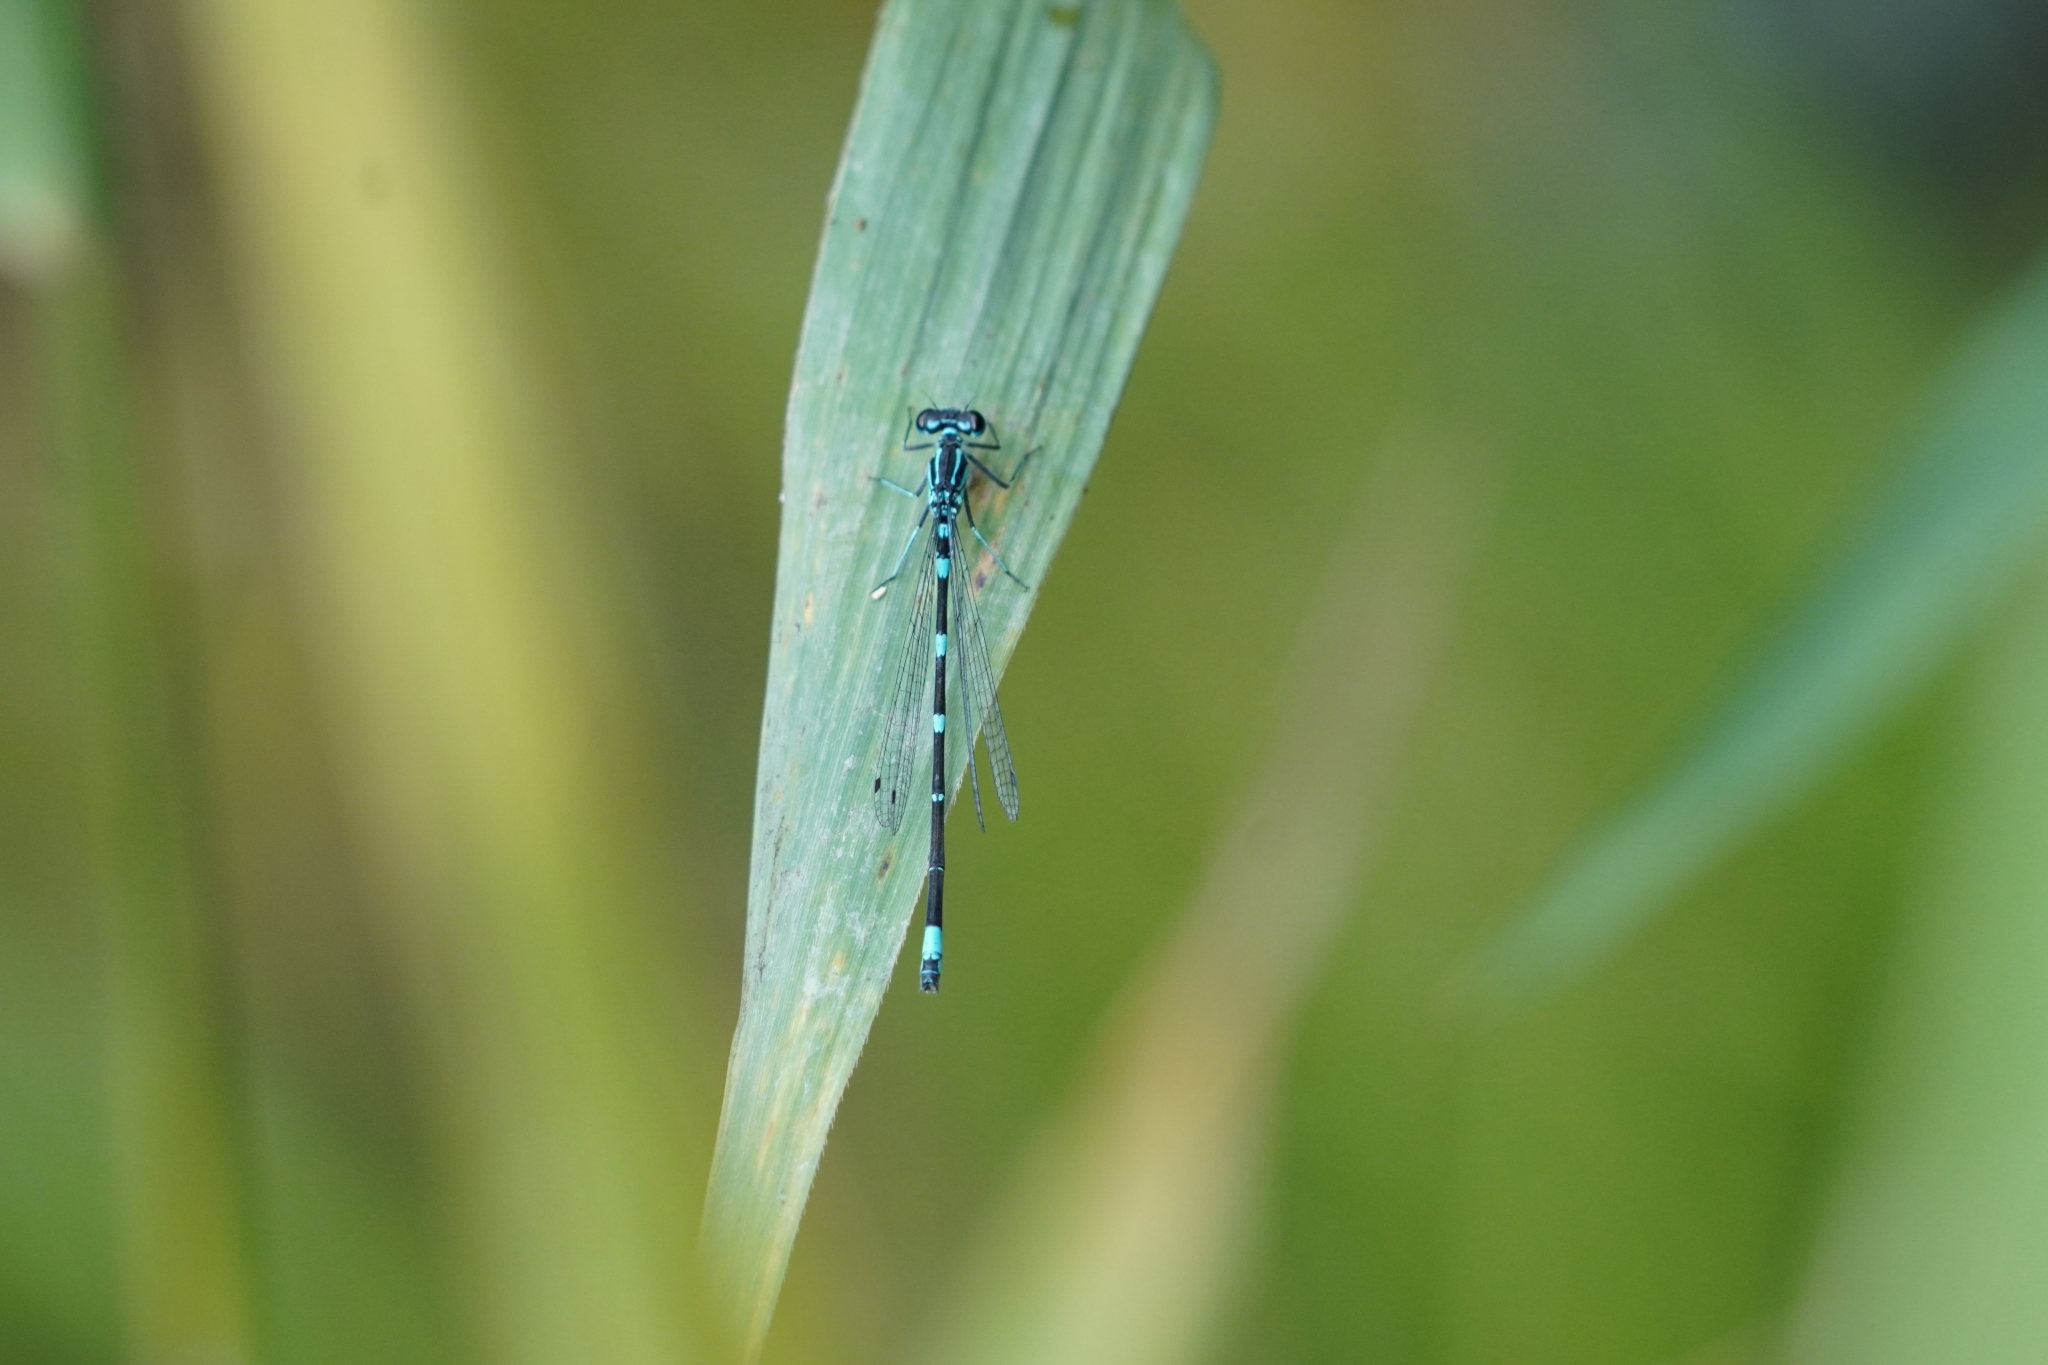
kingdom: Animalia
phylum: Arthropoda
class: Insecta
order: Odonata
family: Coenagrionidae
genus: Coenagrion
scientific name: Coenagrion pulchellum
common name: Variable bluet
